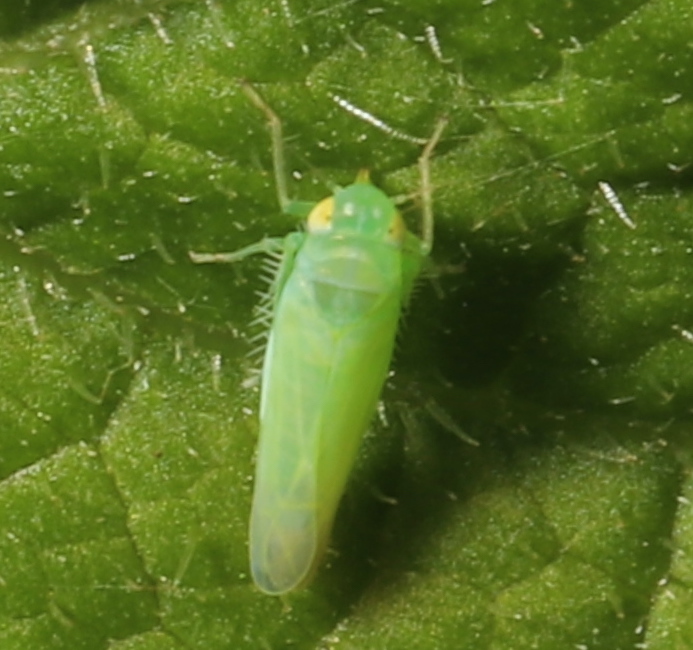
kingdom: Animalia
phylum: Arthropoda
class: Insecta
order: Hemiptera
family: Cicadellidae
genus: Empoasca
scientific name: Empoasca fabae
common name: Potato leafhopper
